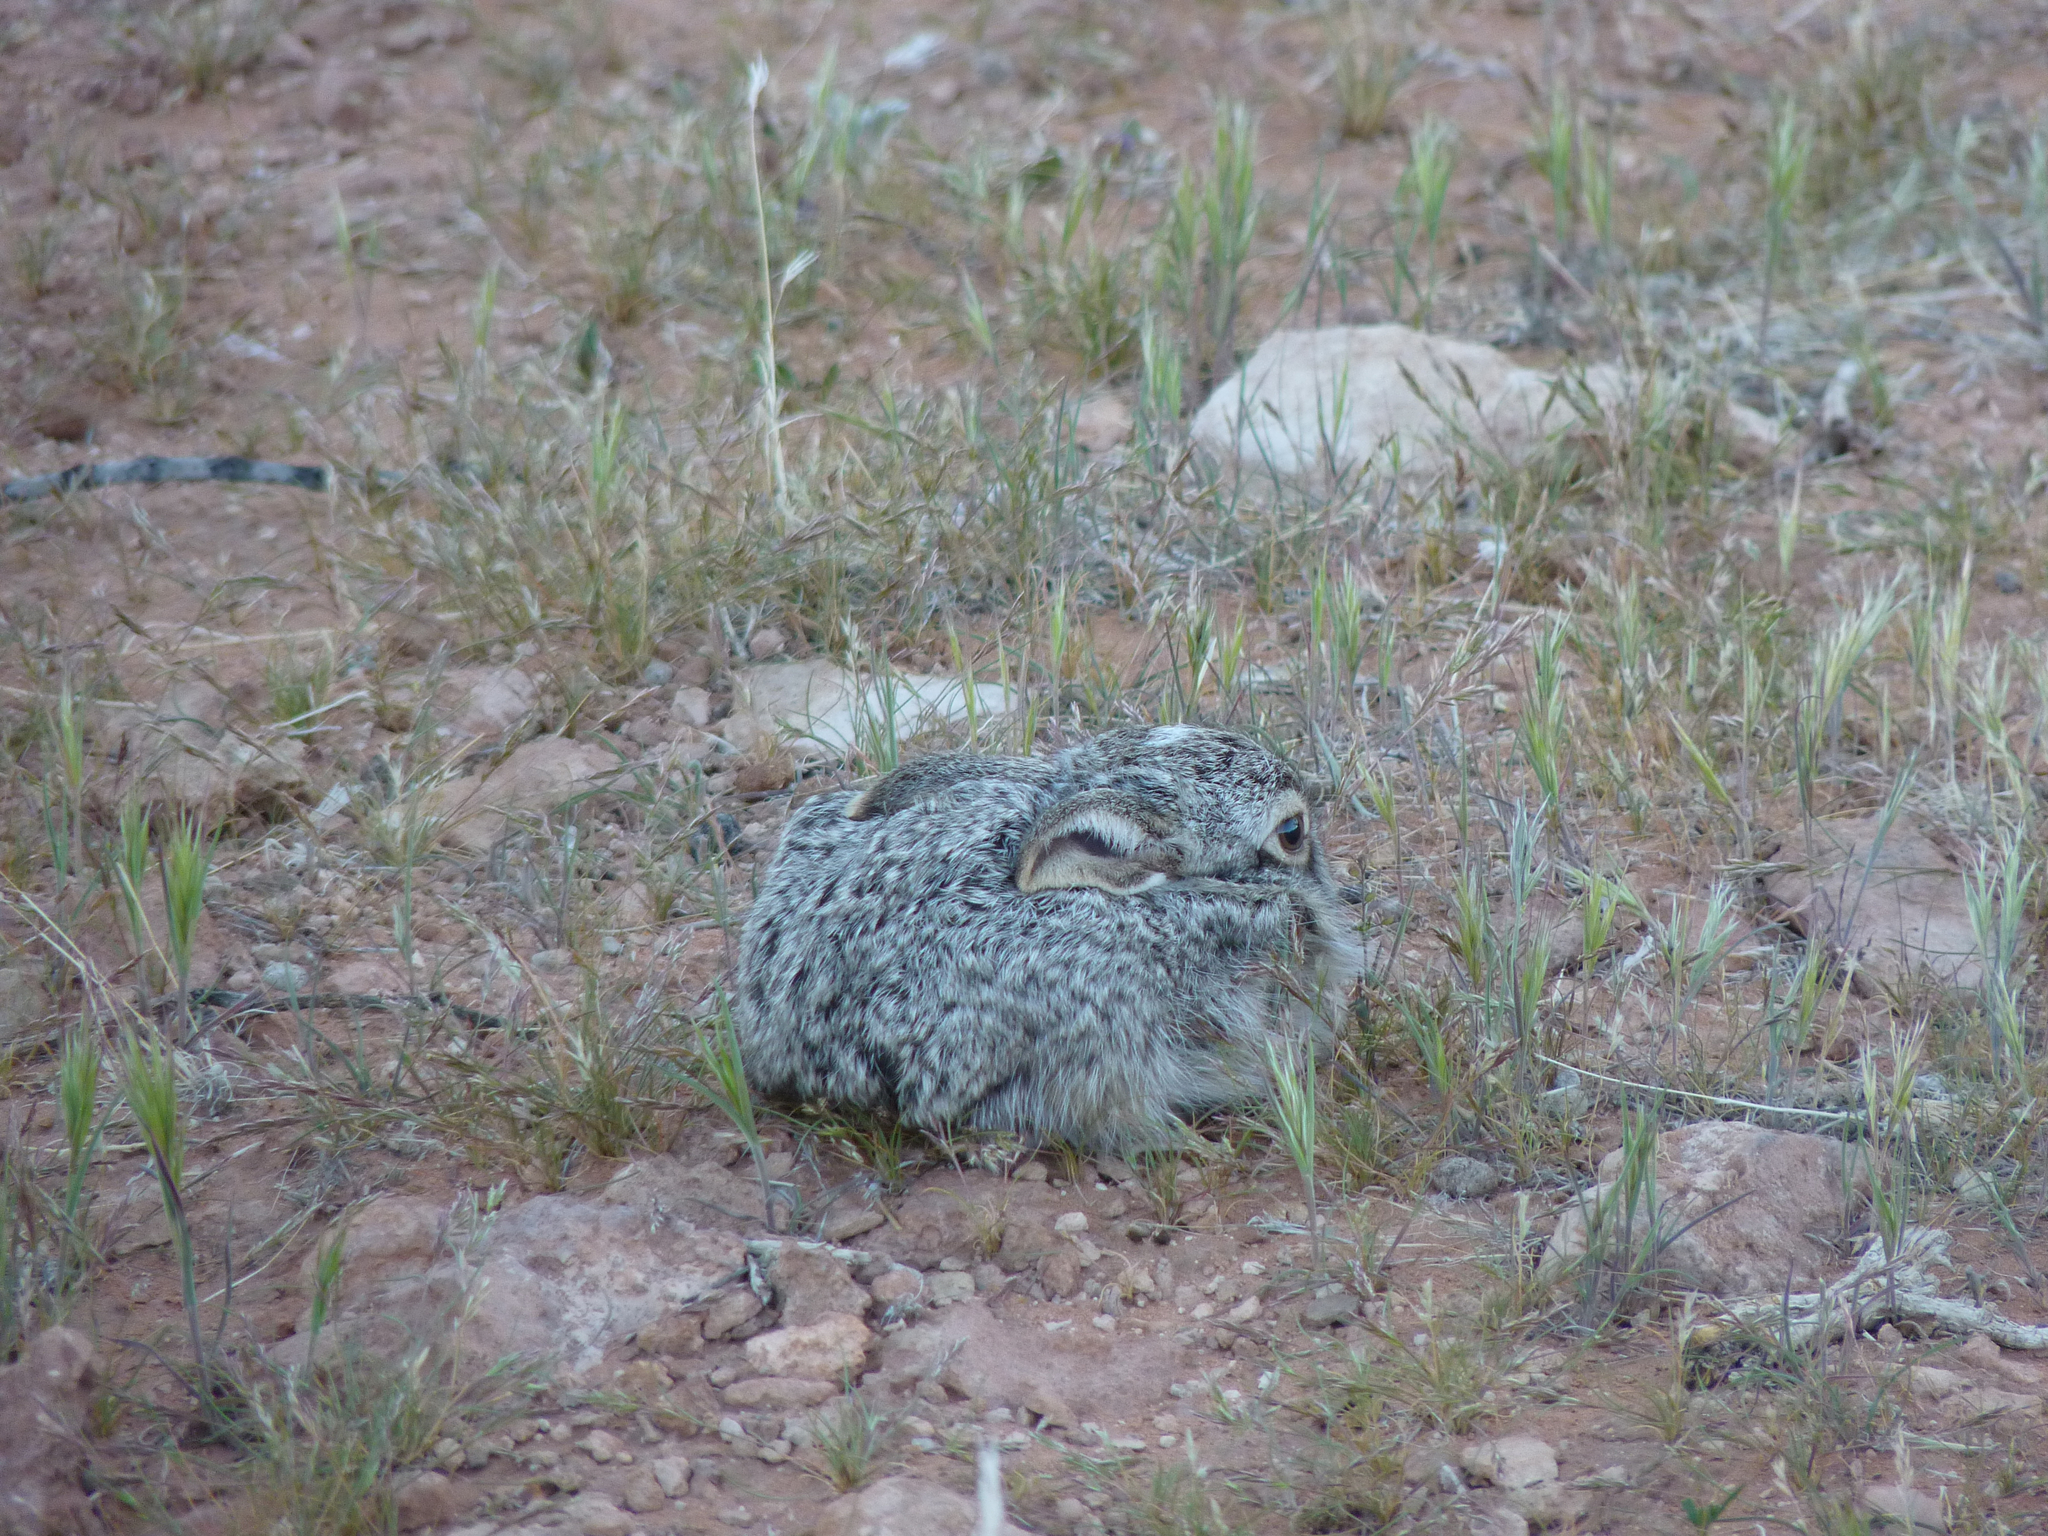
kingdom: Animalia
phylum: Chordata
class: Mammalia
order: Lagomorpha
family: Leporidae
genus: Lepus
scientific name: Lepus californicus
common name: Black-tailed jackrabbit
